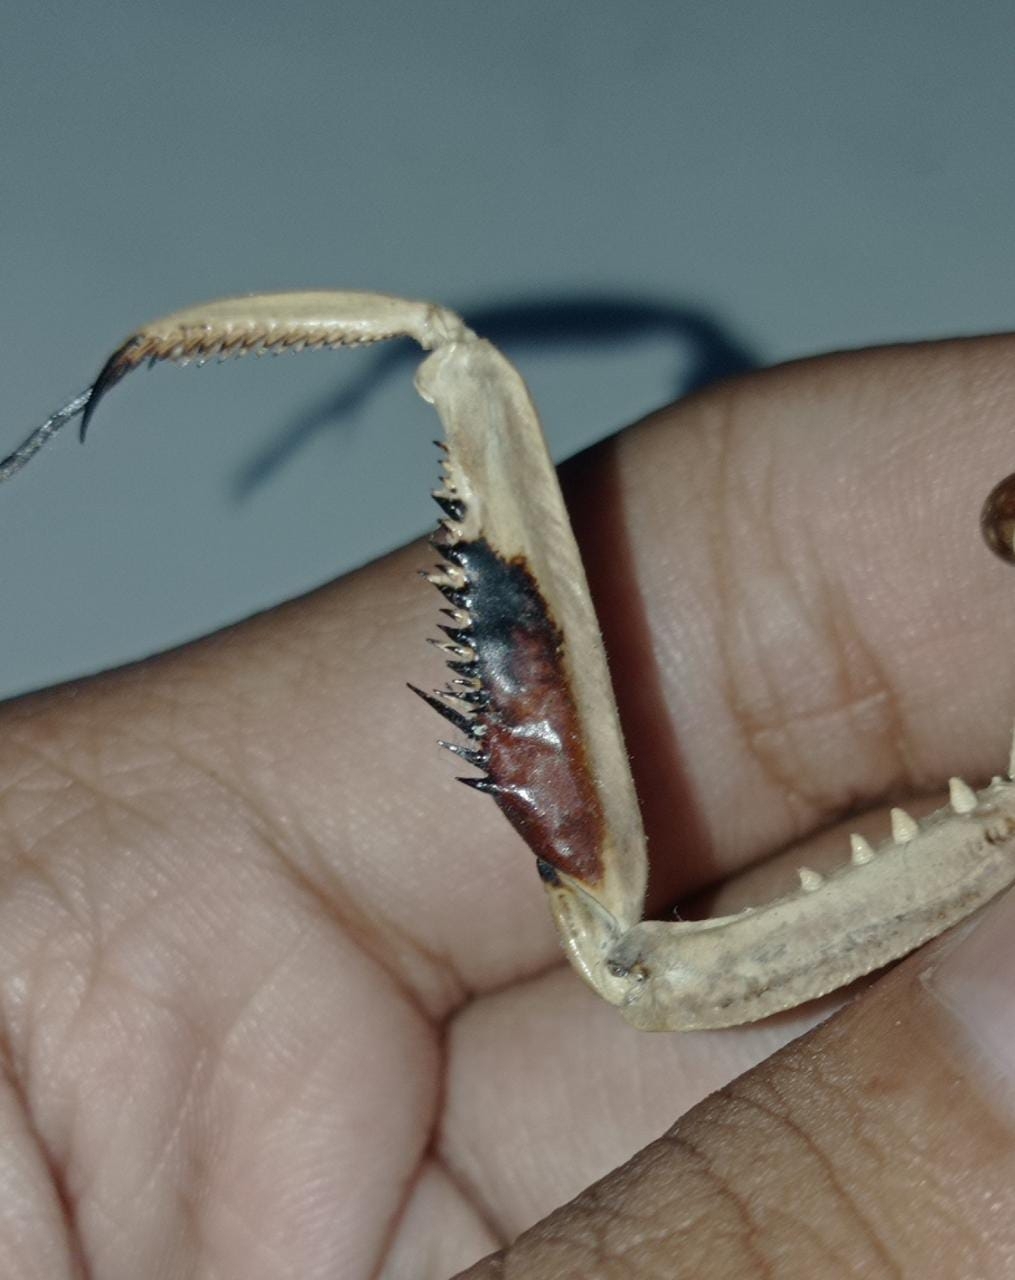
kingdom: Animalia
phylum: Arthropoda
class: Insecta
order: Mantodea
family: Mantidae
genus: Hierodula
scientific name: Hierodula timorensis
